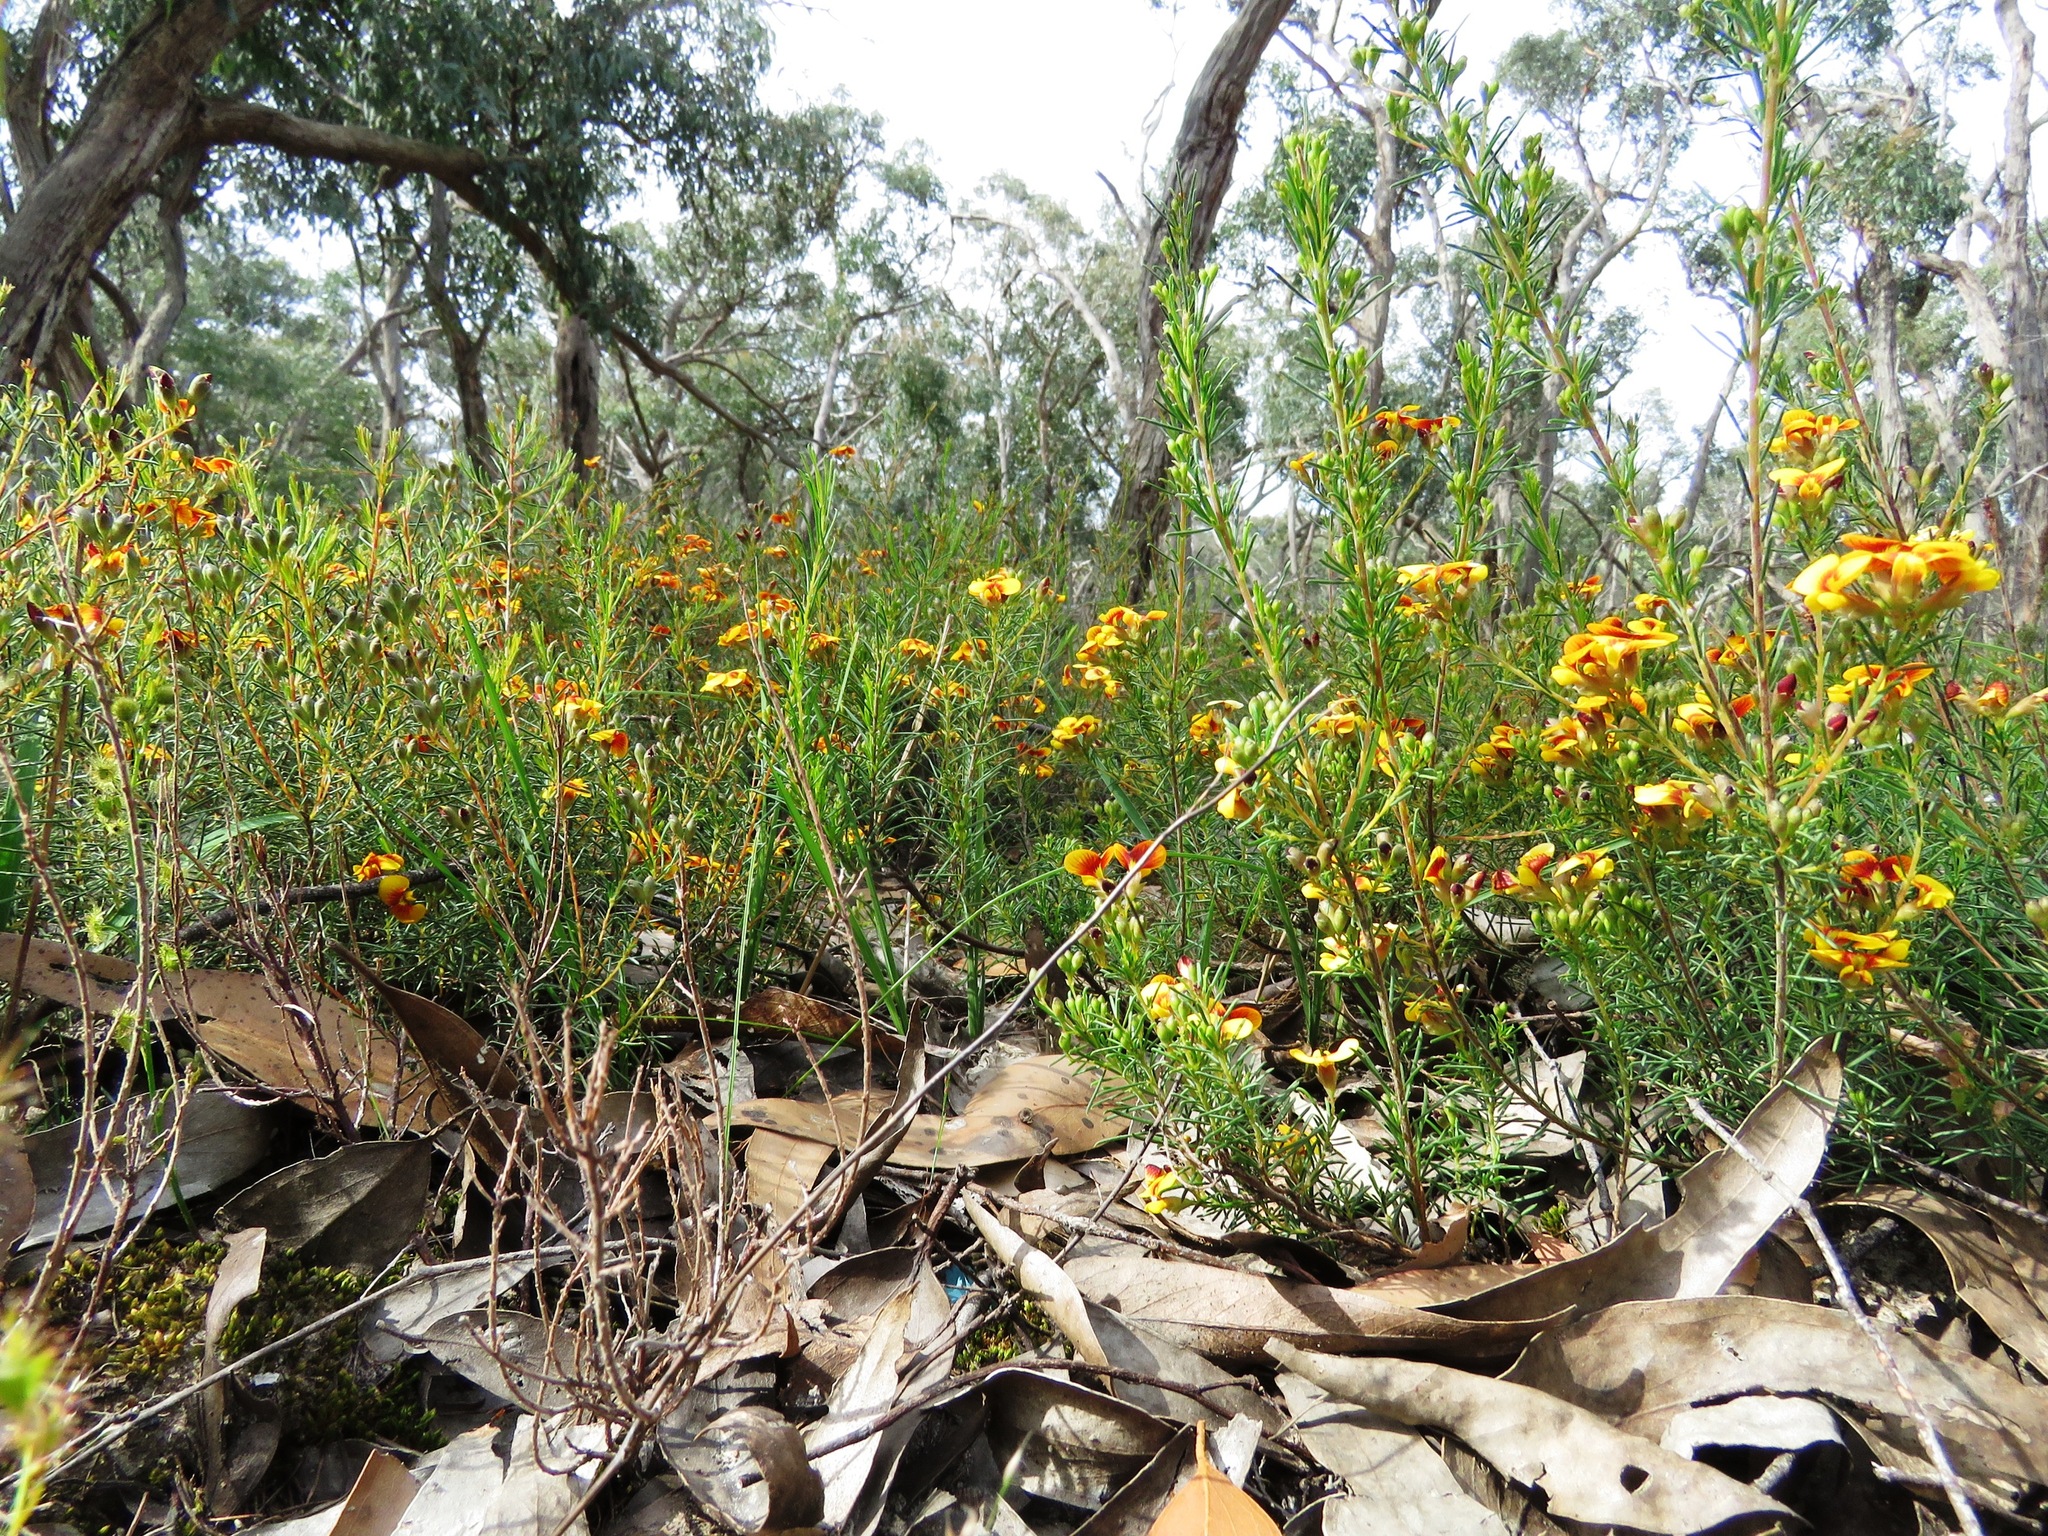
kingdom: Plantae
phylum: Tracheophyta
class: Magnoliopsida
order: Fabales
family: Fabaceae
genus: Dillwynia
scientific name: Dillwynia cinerascens
